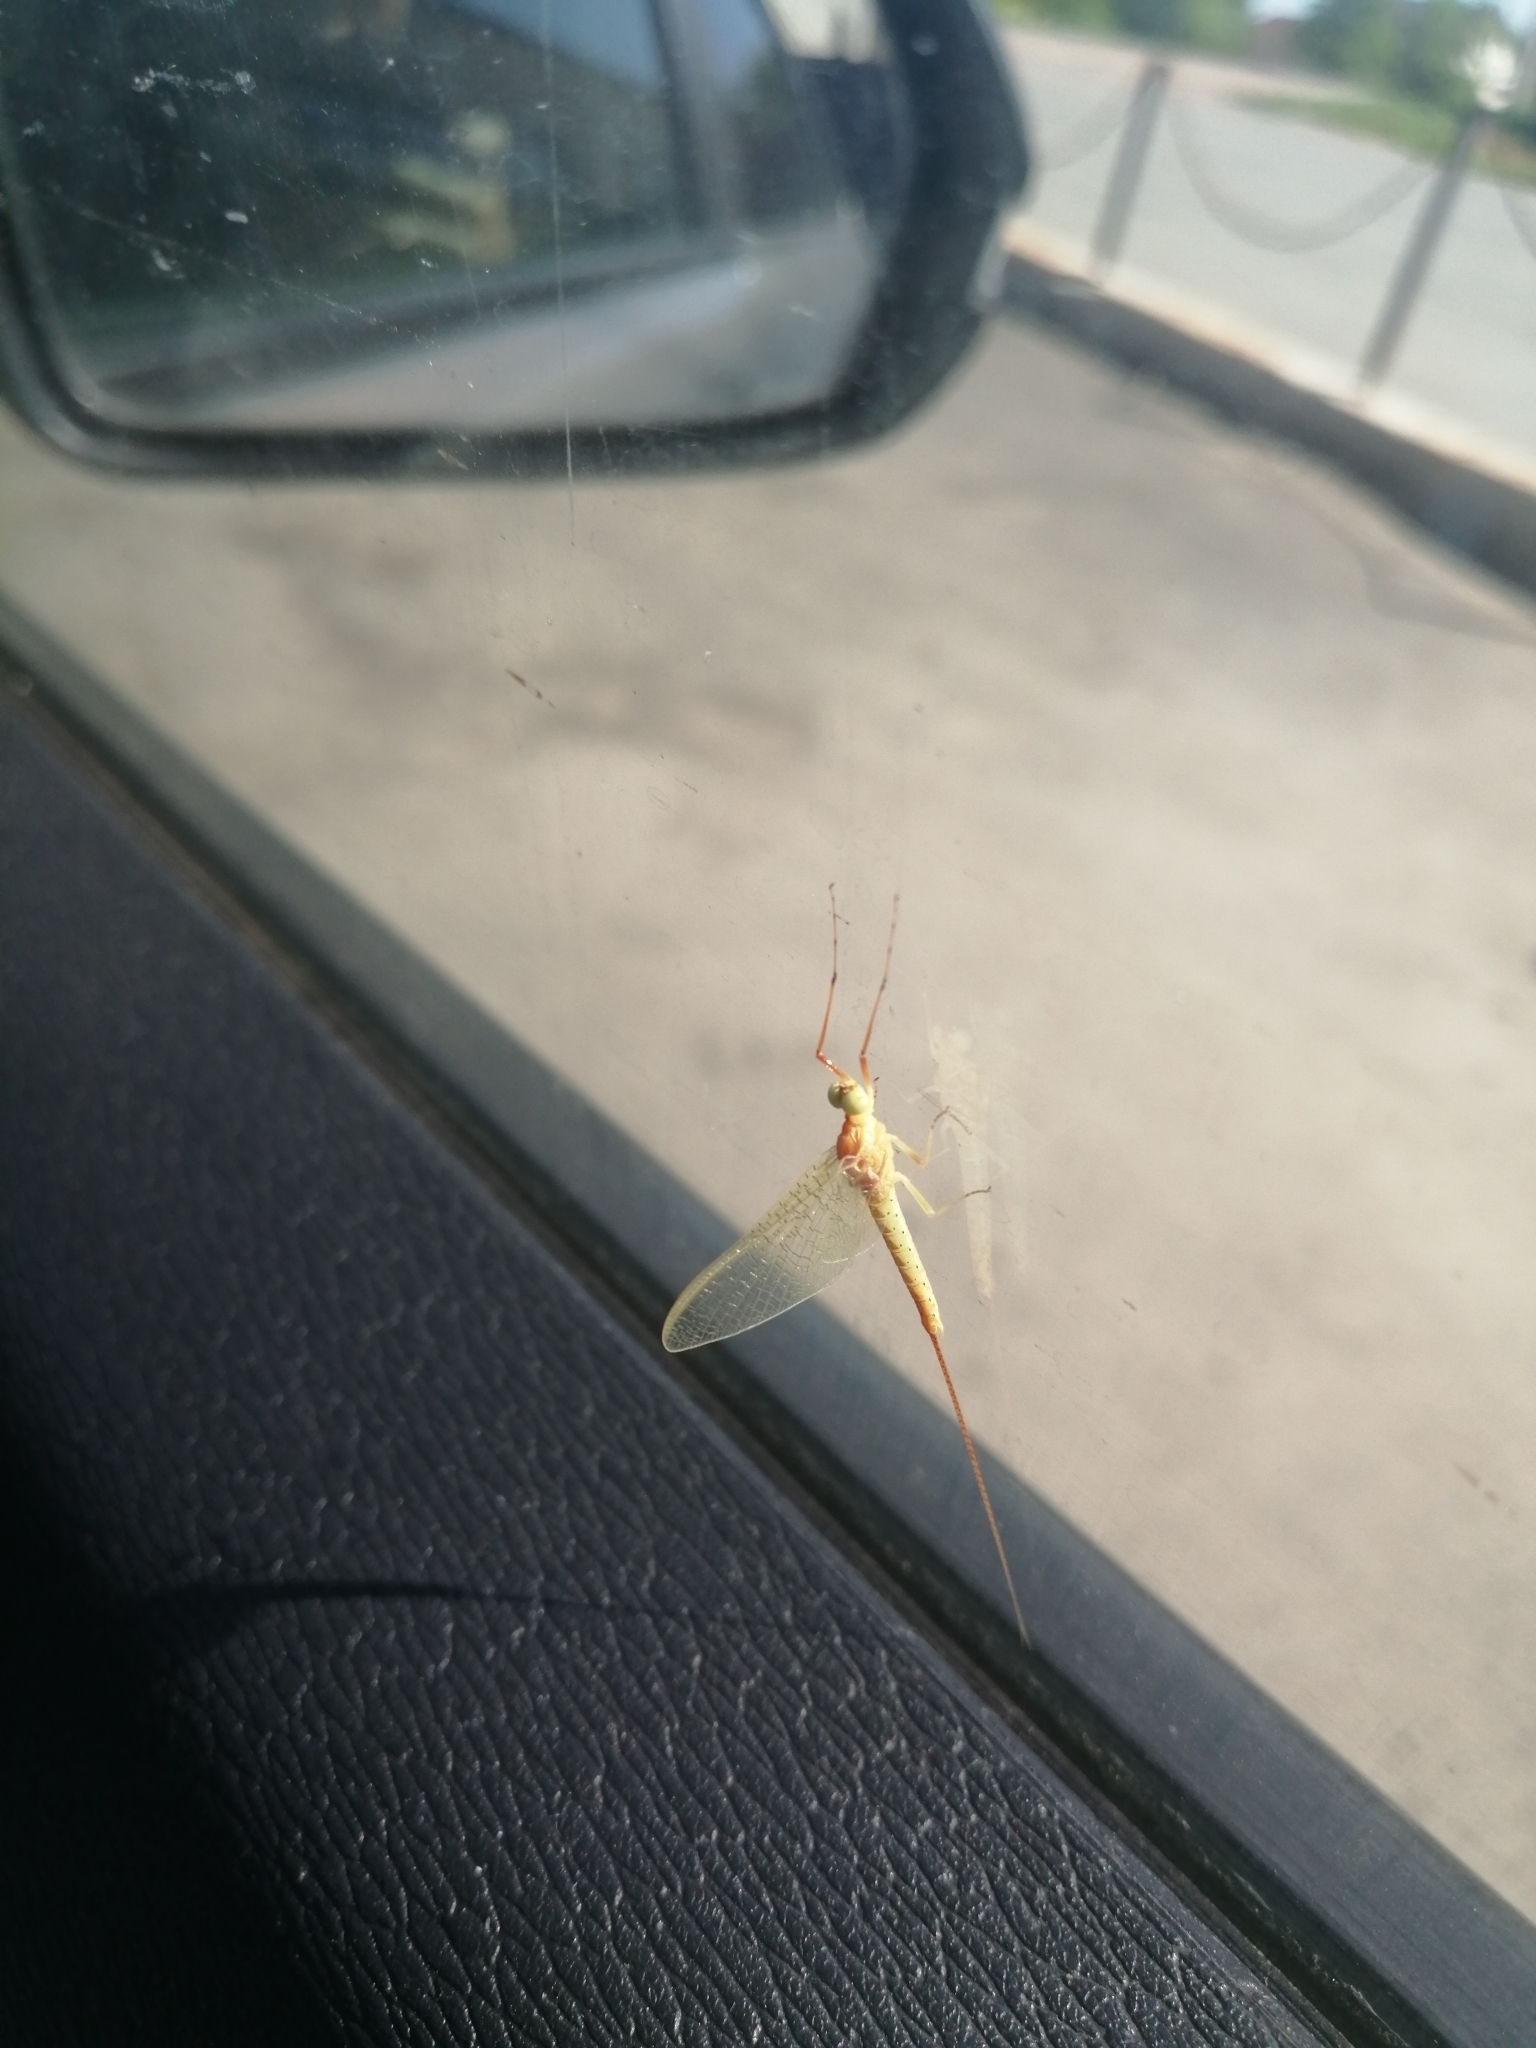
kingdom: Animalia
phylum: Arthropoda
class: Insecta
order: Ephemeroptera
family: Potamanthidae
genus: Potamanthus
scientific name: Potamanthus luteus
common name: Yellow mayfly
